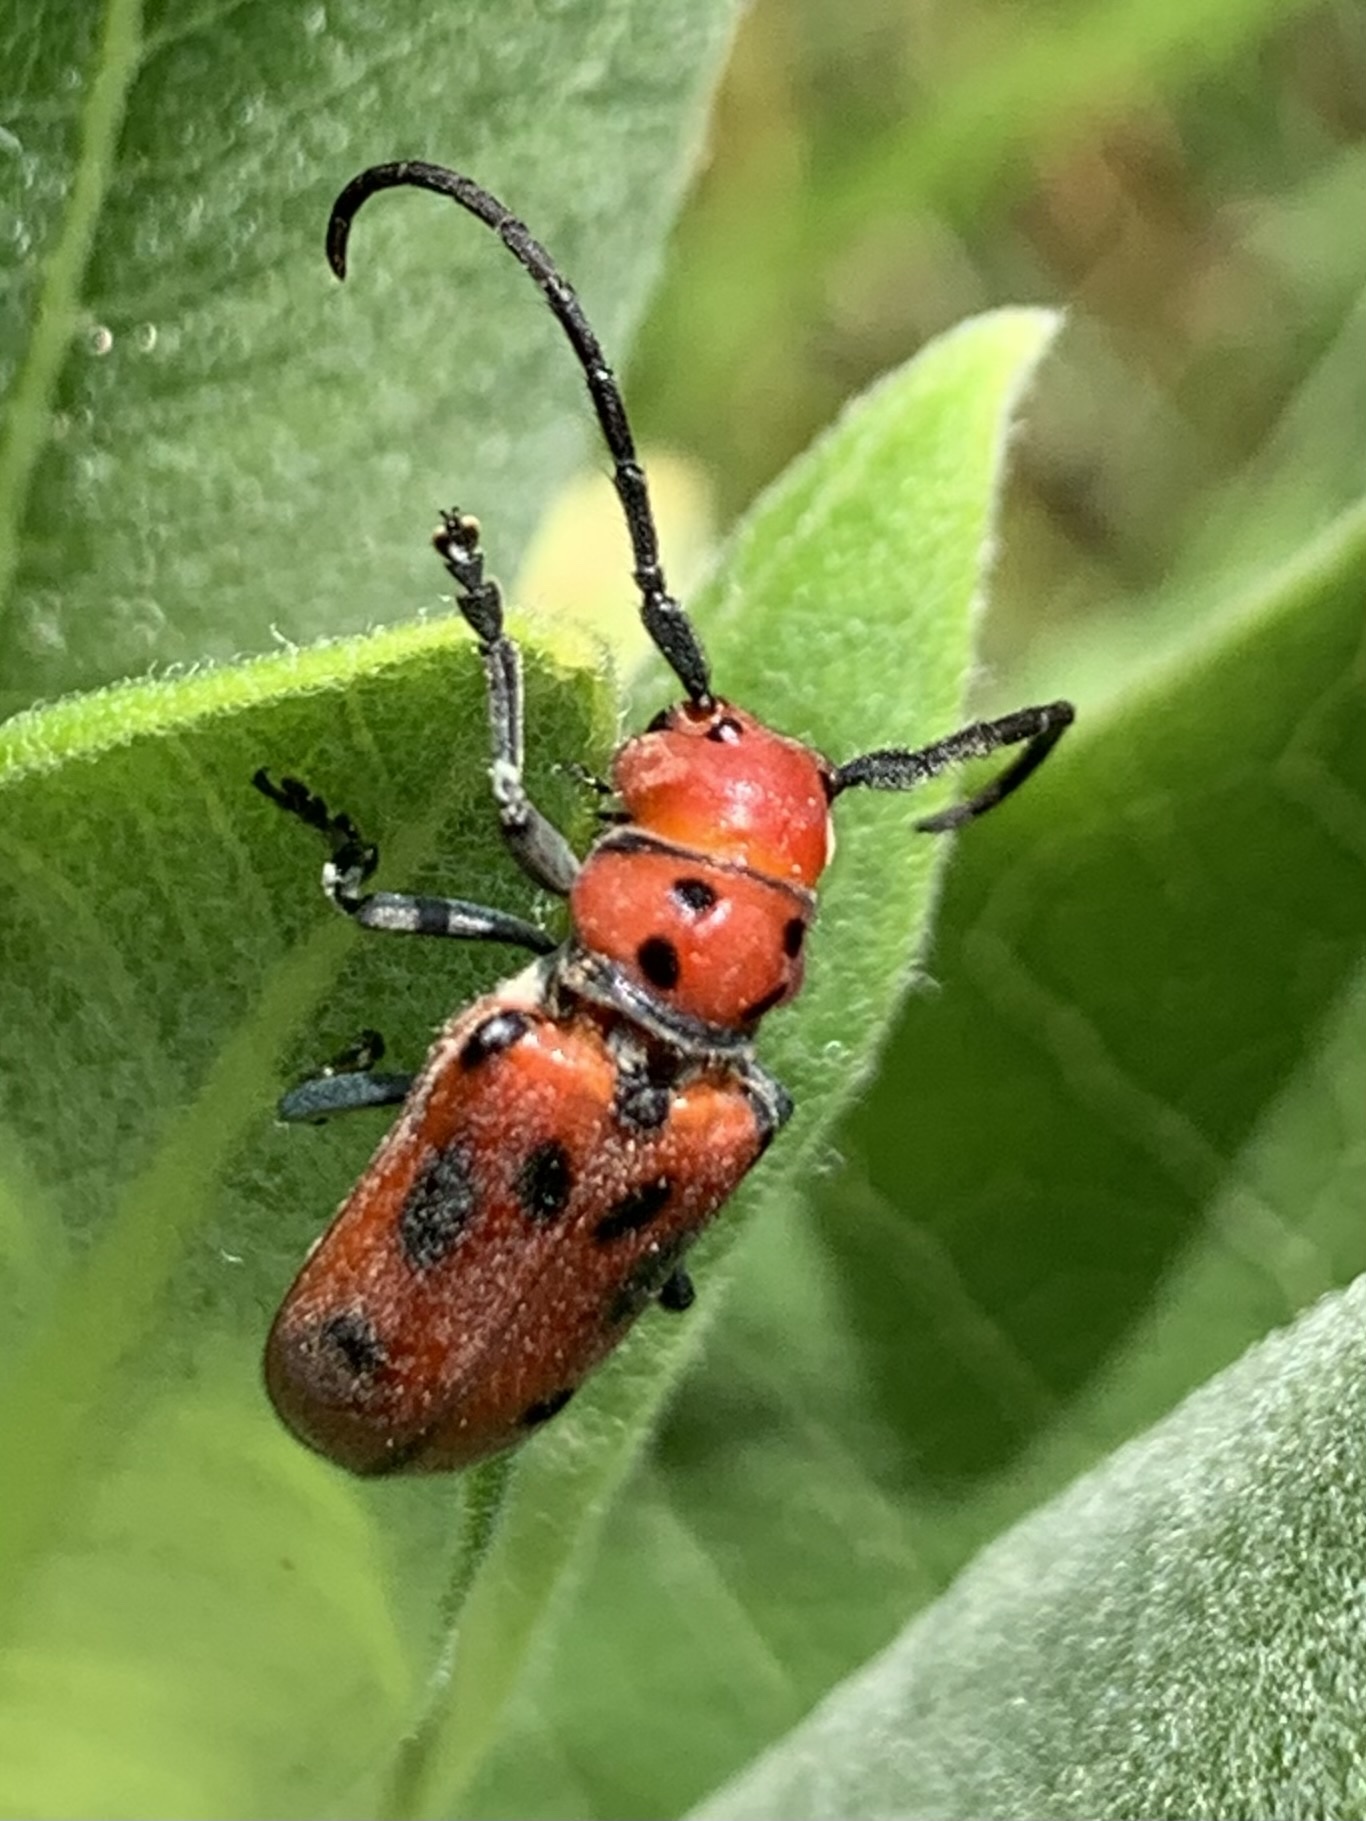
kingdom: Animalia
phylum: Arthropoda
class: Insecta
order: Coleoptera
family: Cerambycidae
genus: Tetraopes
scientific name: Tetraopes tetrophthalmus
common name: Red milkweed beetle
